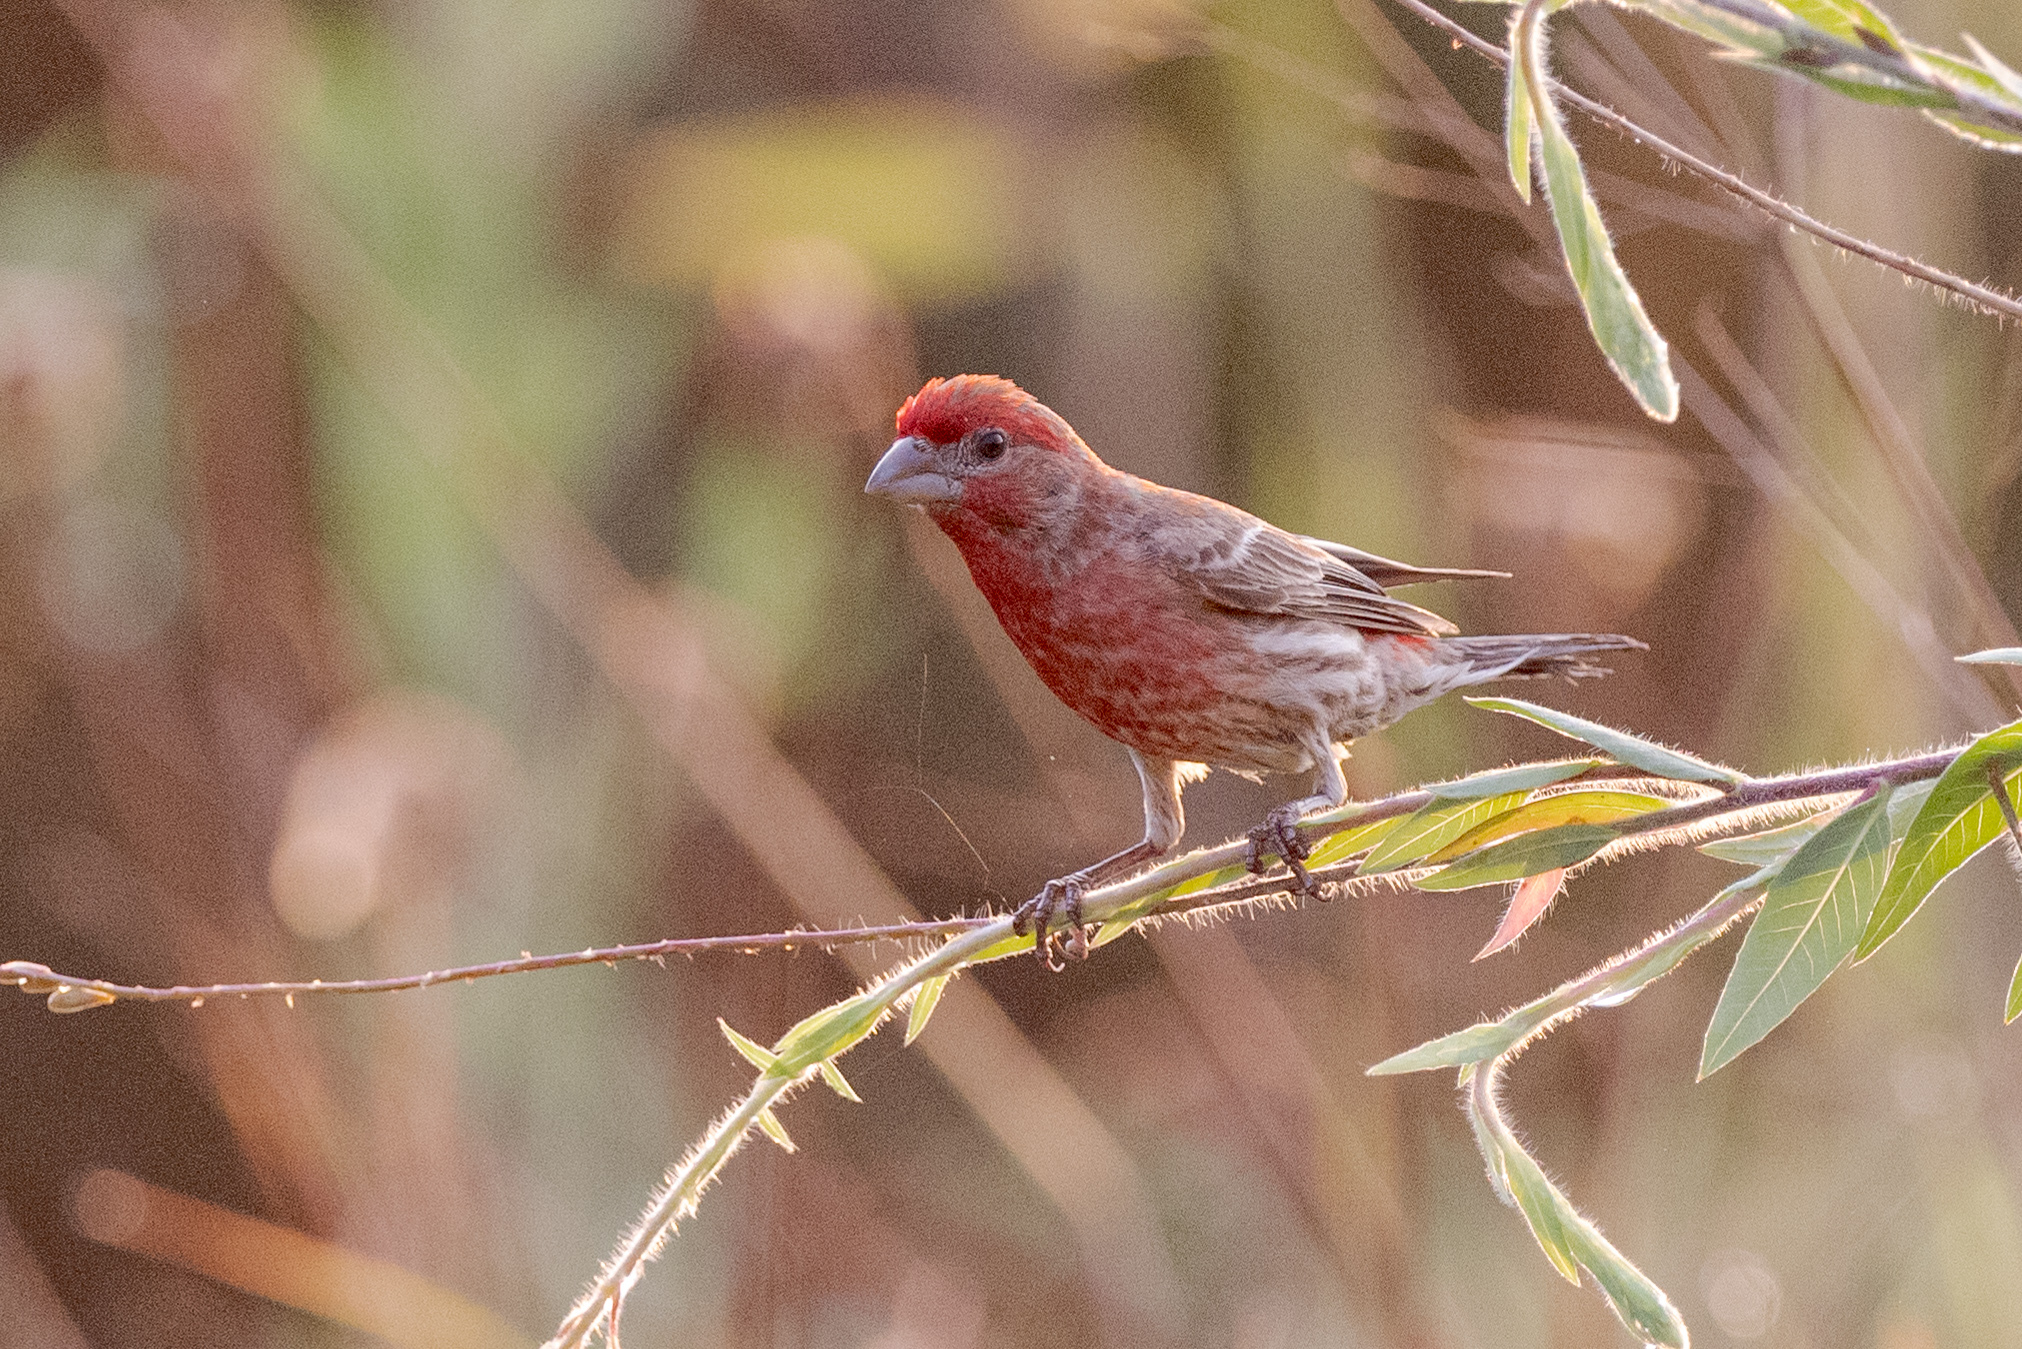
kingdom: Animalia
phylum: Chordata
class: Aves
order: Passeriformes
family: Fringillidae
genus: Haemorhous
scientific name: Haemorhous mexicanus
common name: House finch
